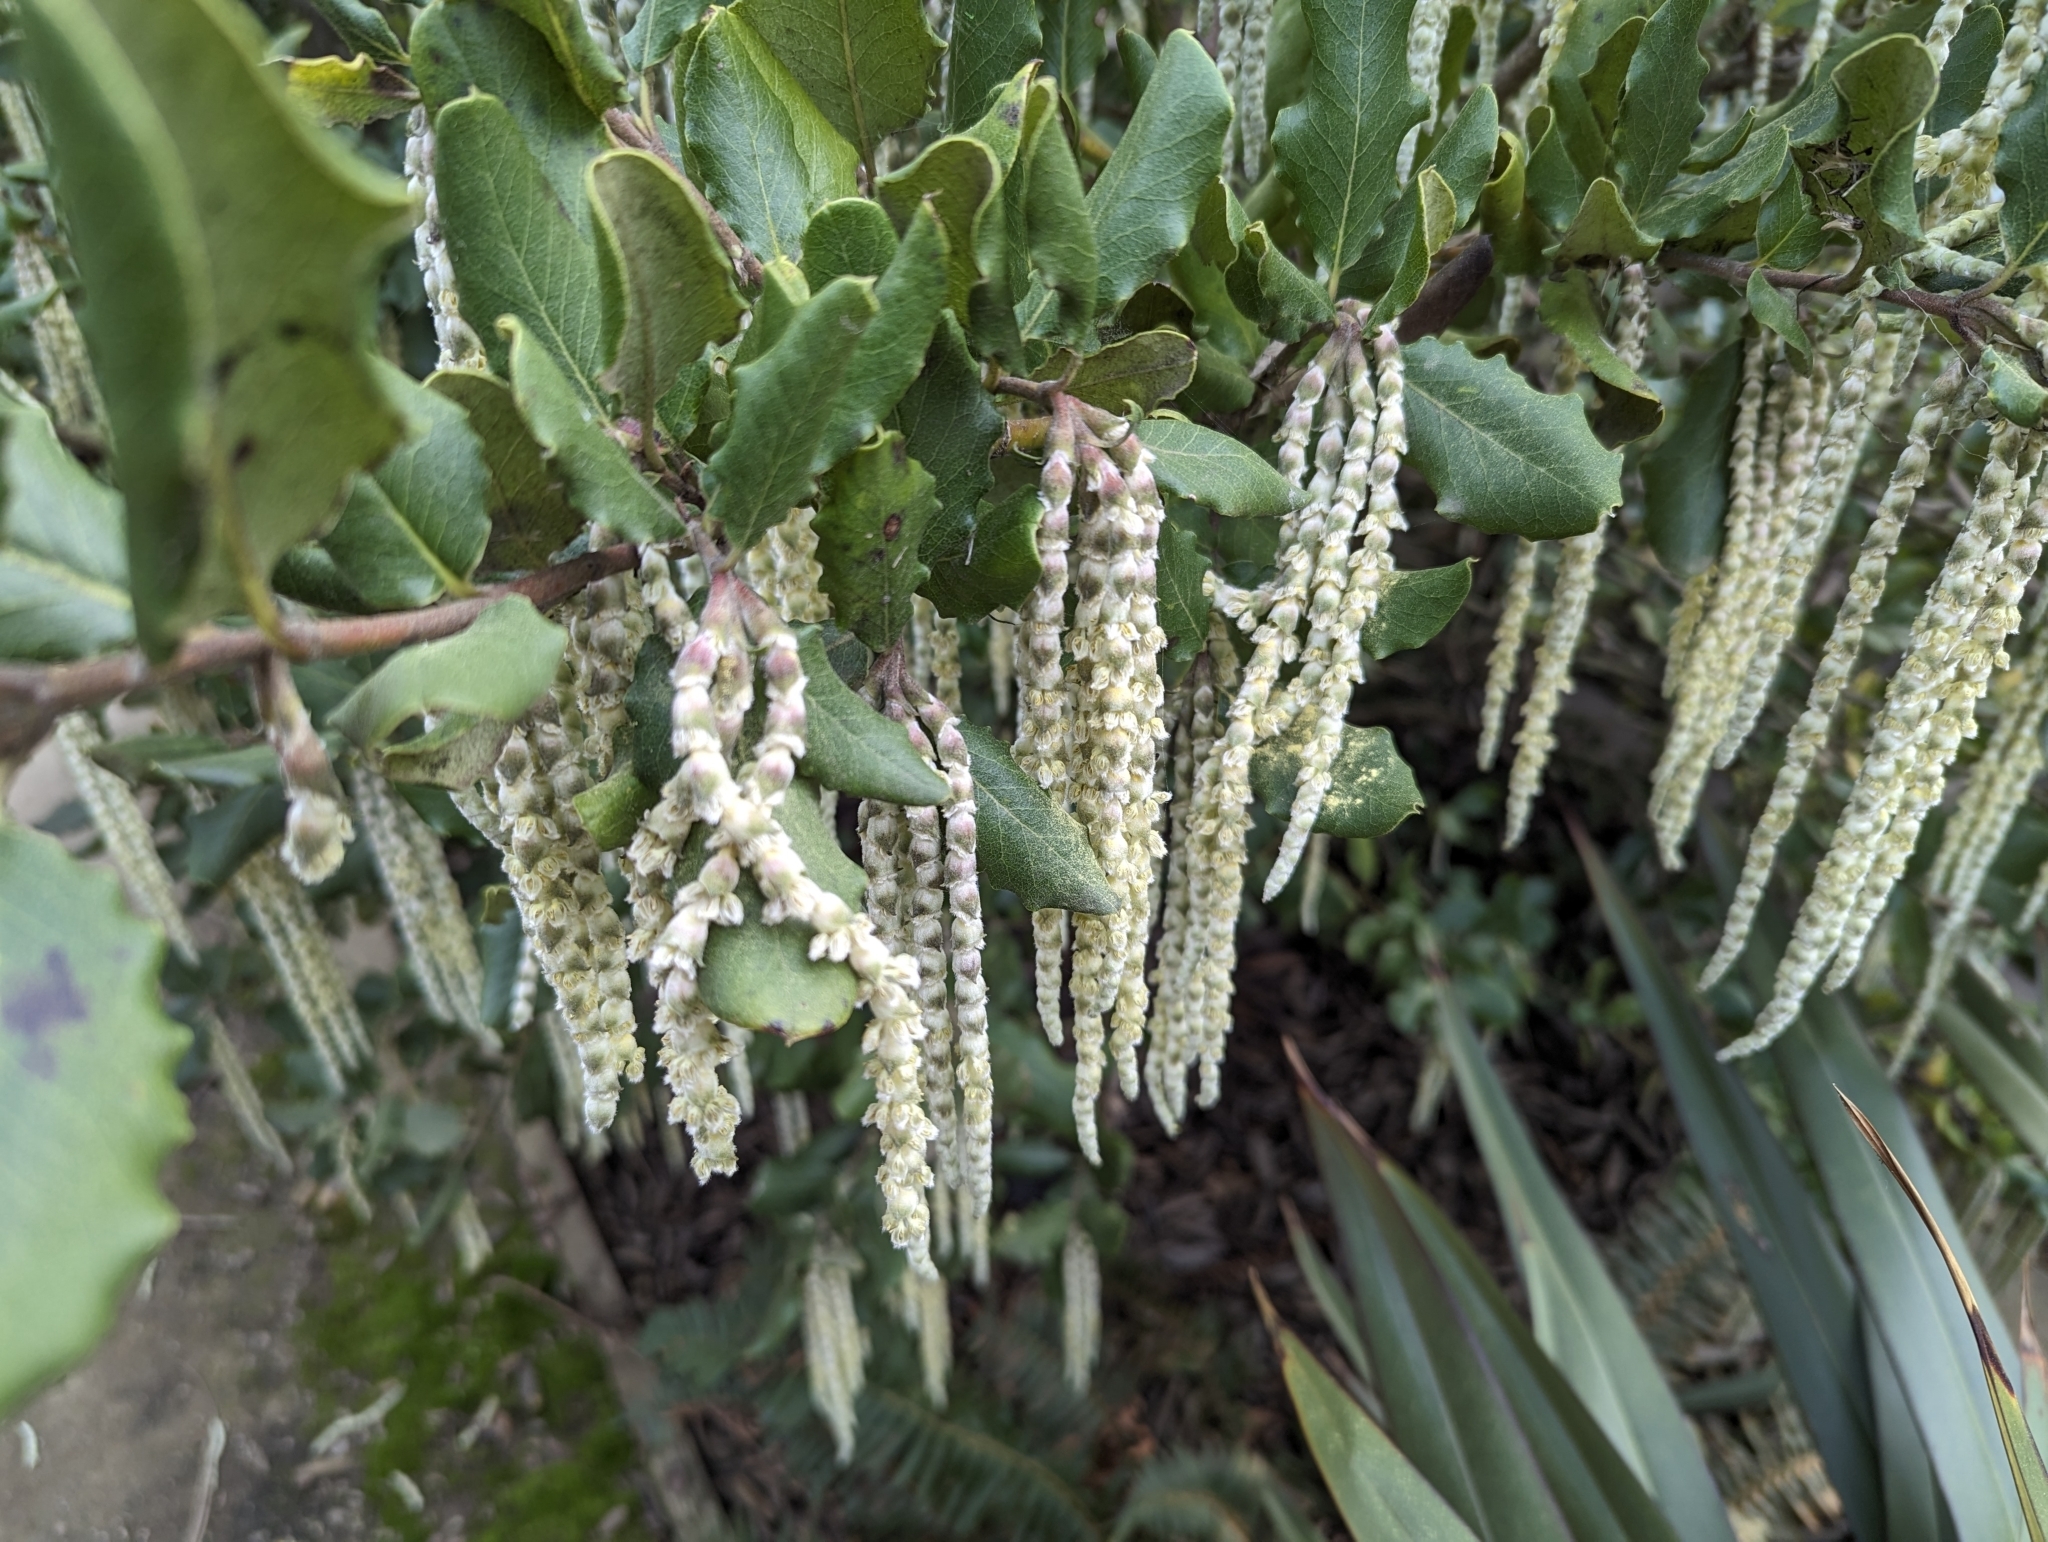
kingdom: Plantae
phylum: Tracheophyta
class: Magnoliopsida
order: Garryales
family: Garryaceae
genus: Garrya
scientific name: Garrya elliptica
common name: Silk-tassel
